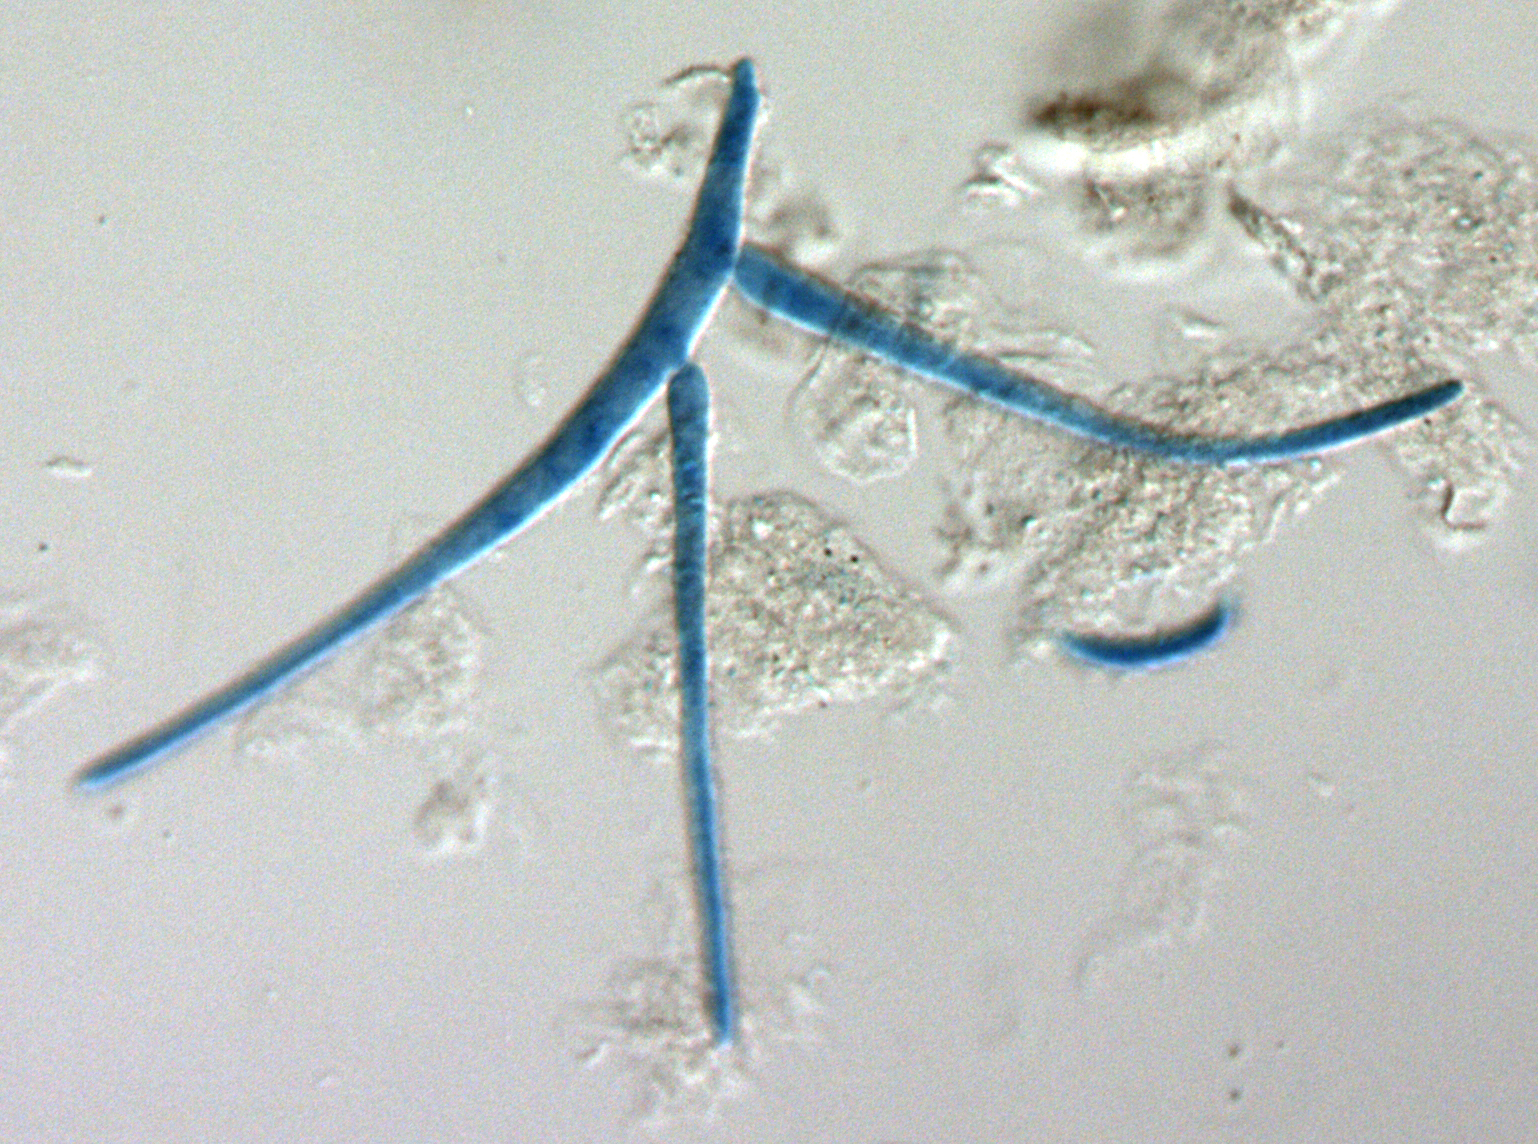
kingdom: Fungi
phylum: Ascomycota
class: Leotiomycetes
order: Helotiales
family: Tricladiaceae
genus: Tricladium
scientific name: Tricladium splendens
